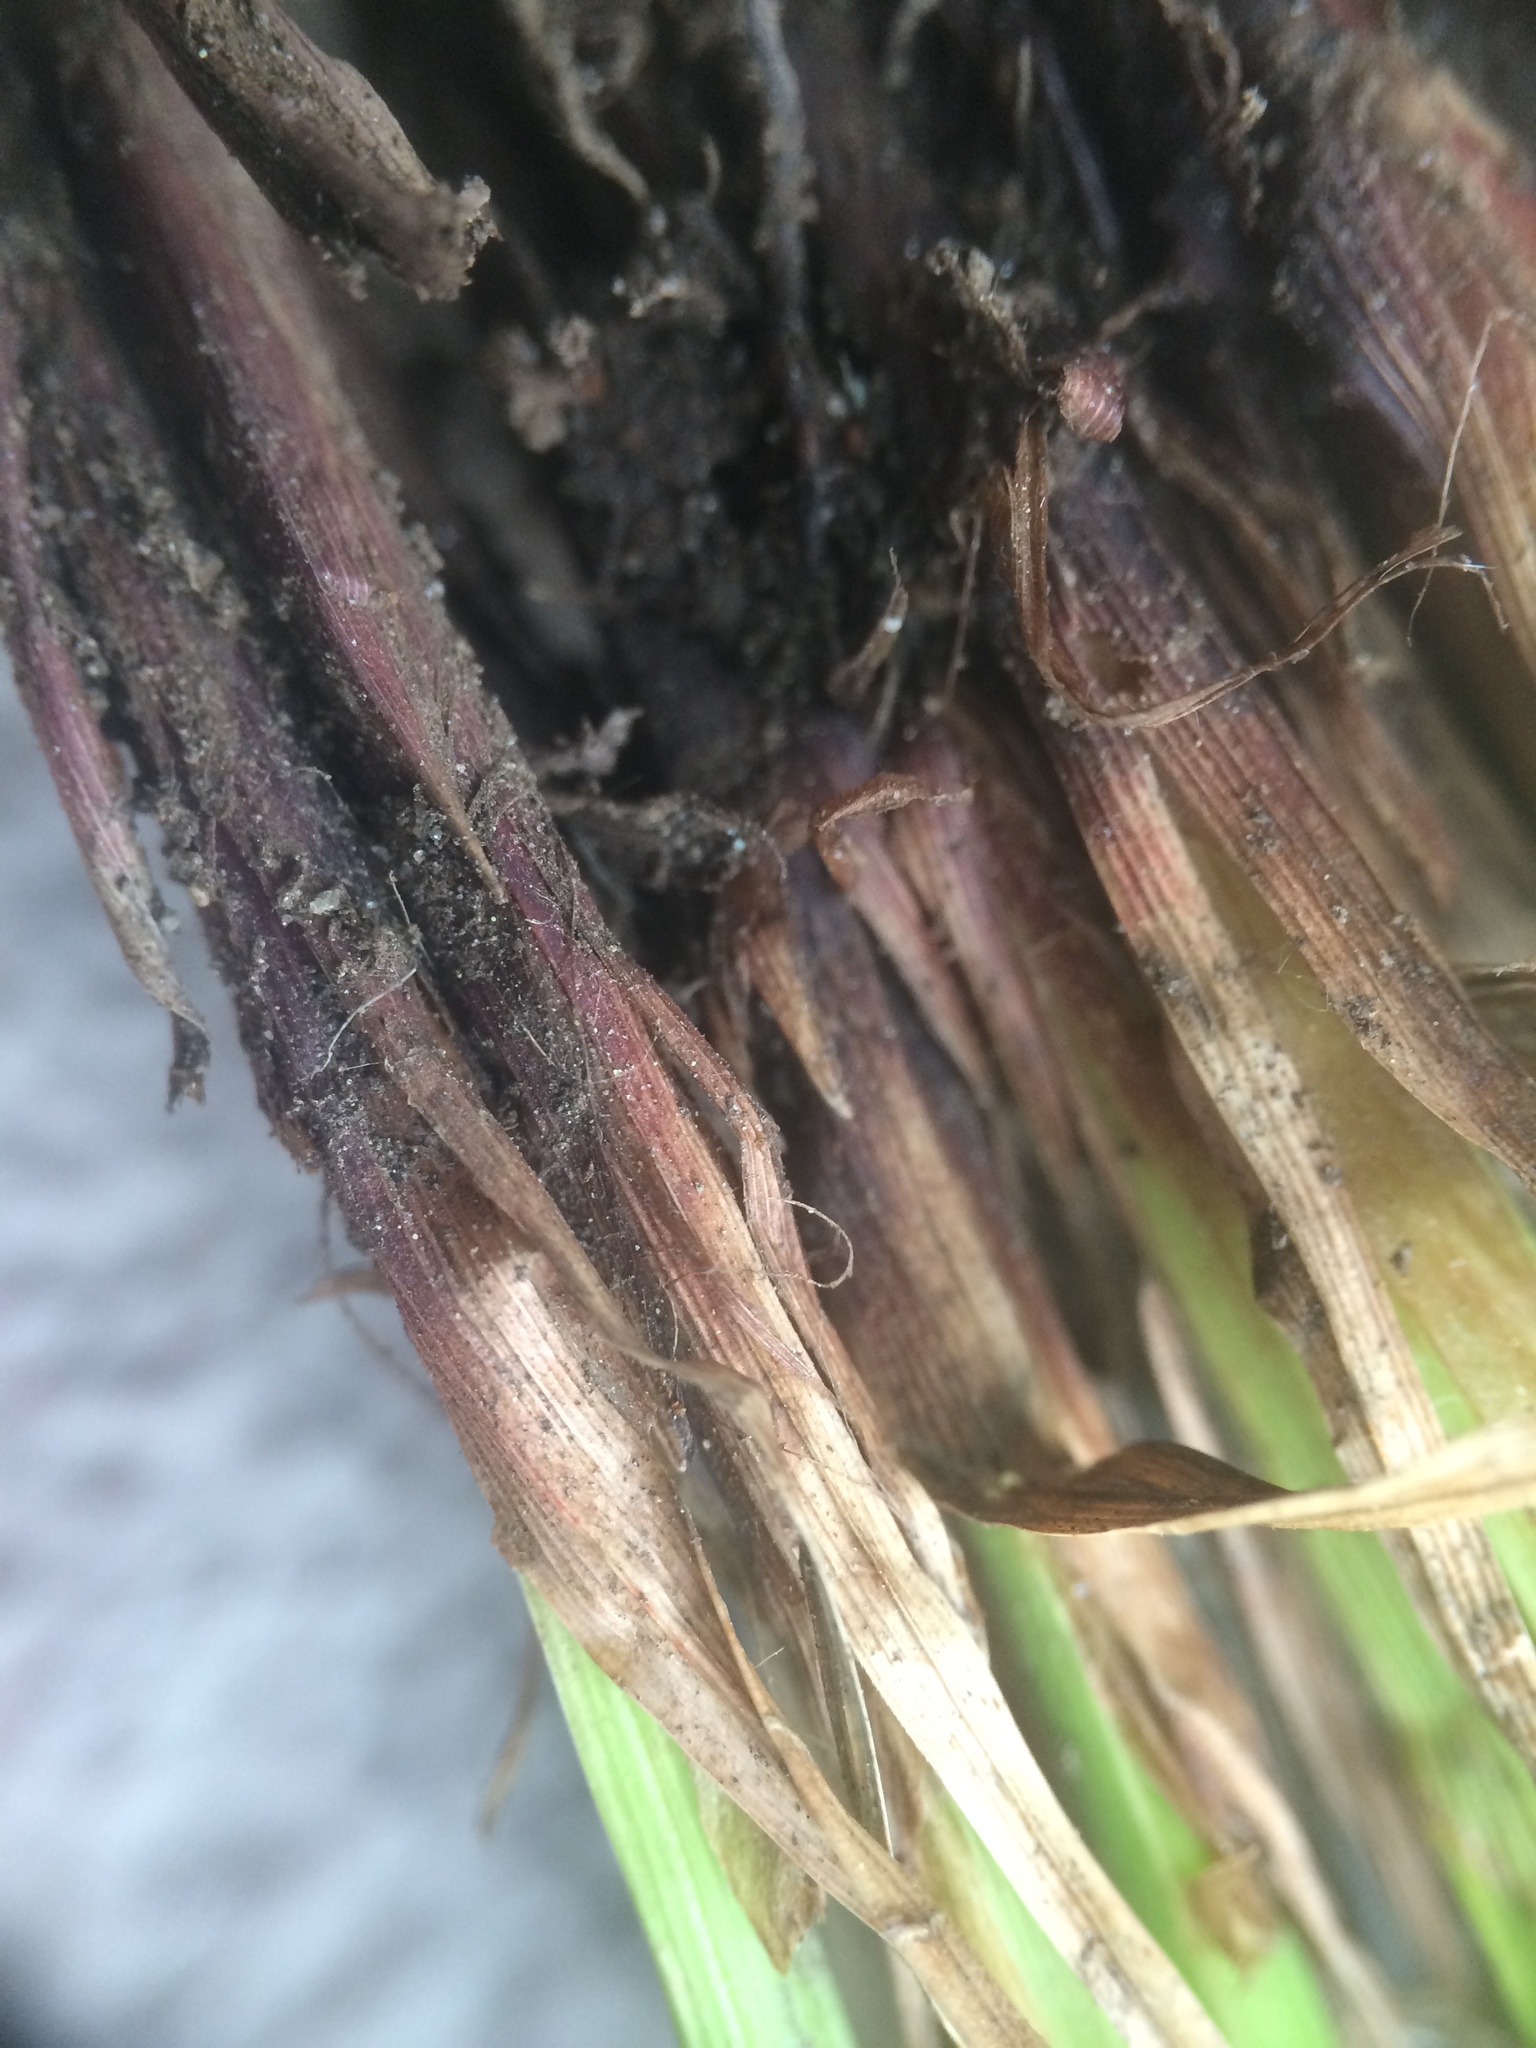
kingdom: Plantae
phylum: Tracheophyta
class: Liliopsida
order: Poales
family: Cyperaceae
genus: Carex
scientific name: Carex debilis
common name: White-edge sedge
